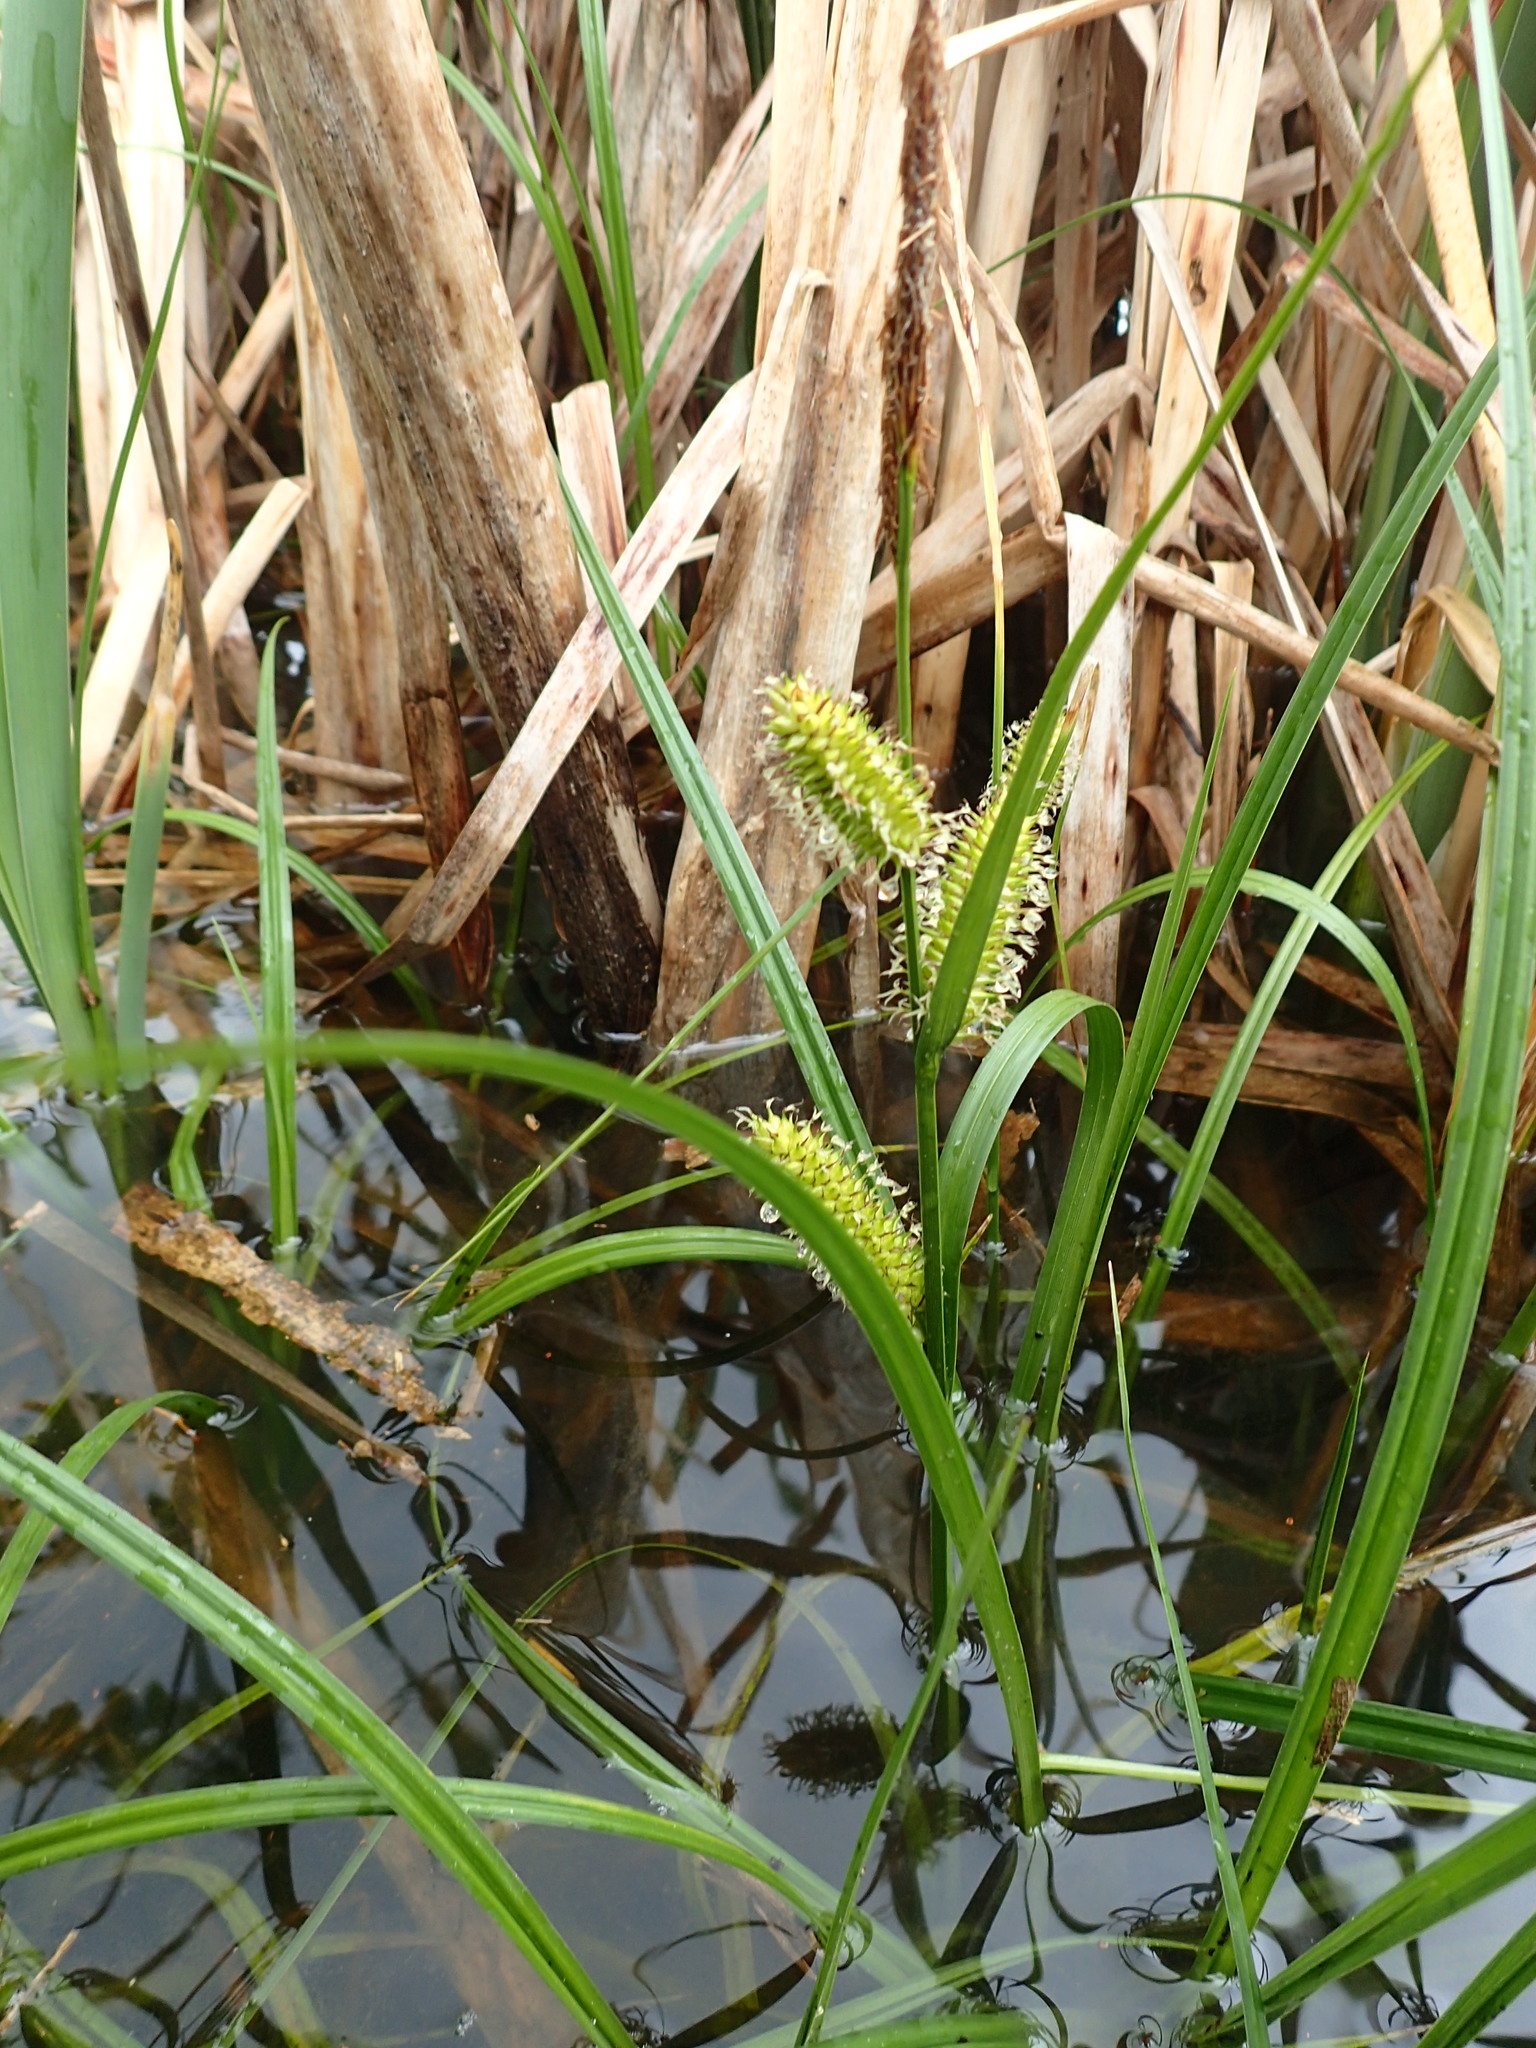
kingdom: Plantae
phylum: Tracheophyta
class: Liliopsida
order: Poales
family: Cyperaceae
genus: Carex
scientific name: Carex vesicaria
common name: Bladder-sedge
